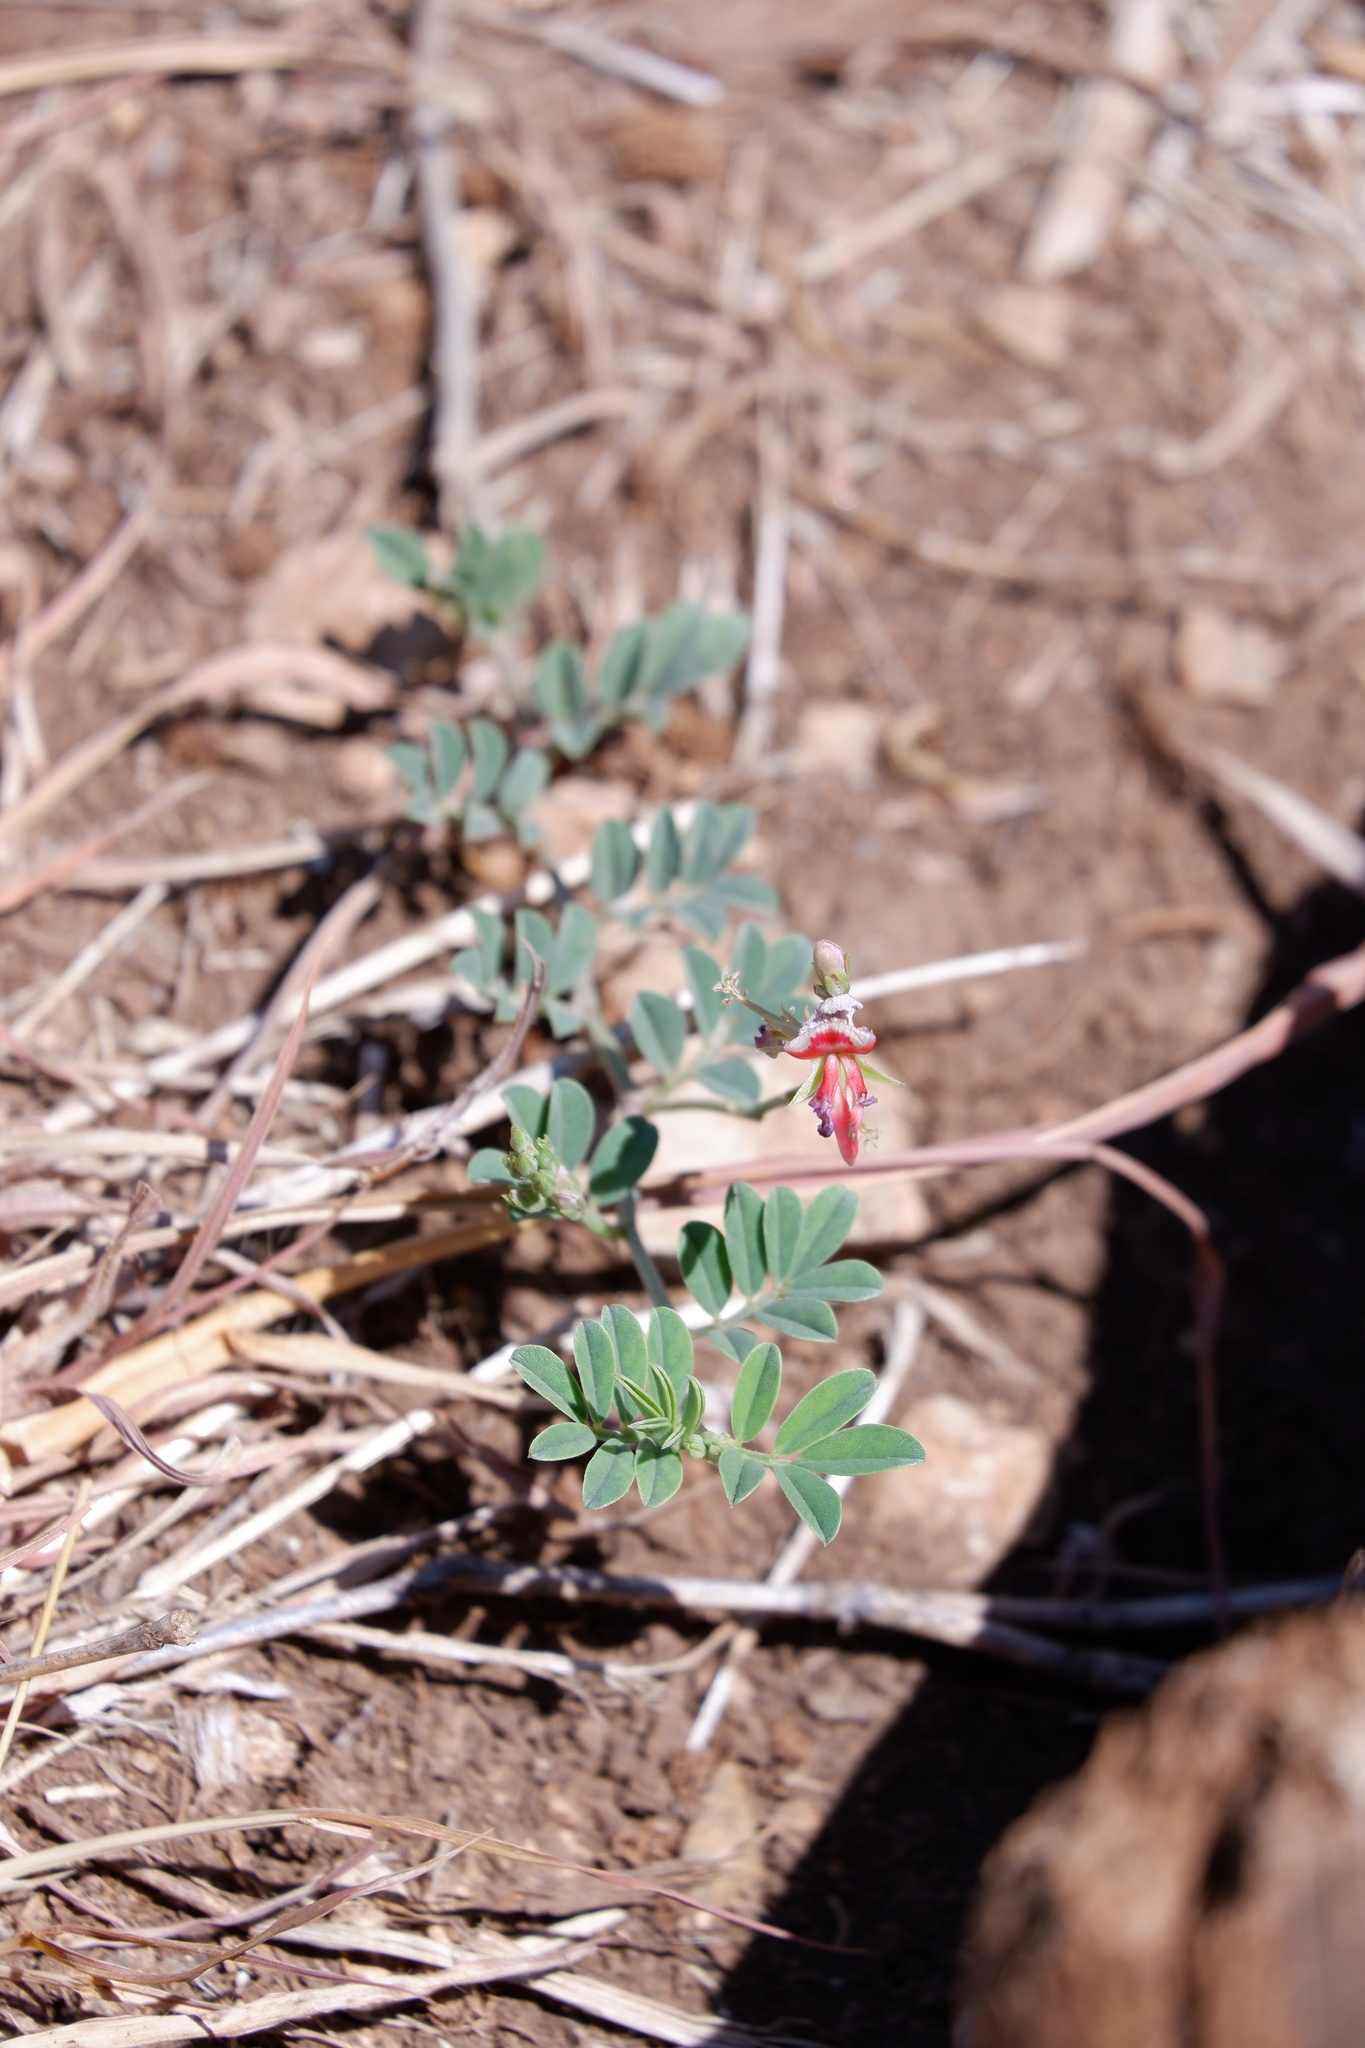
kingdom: Plantae
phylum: Tracheophyta
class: Magnoliopsida
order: Fabales
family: Fabaceae
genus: Indigofera
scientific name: Indigofera miniata
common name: Coast indigo
